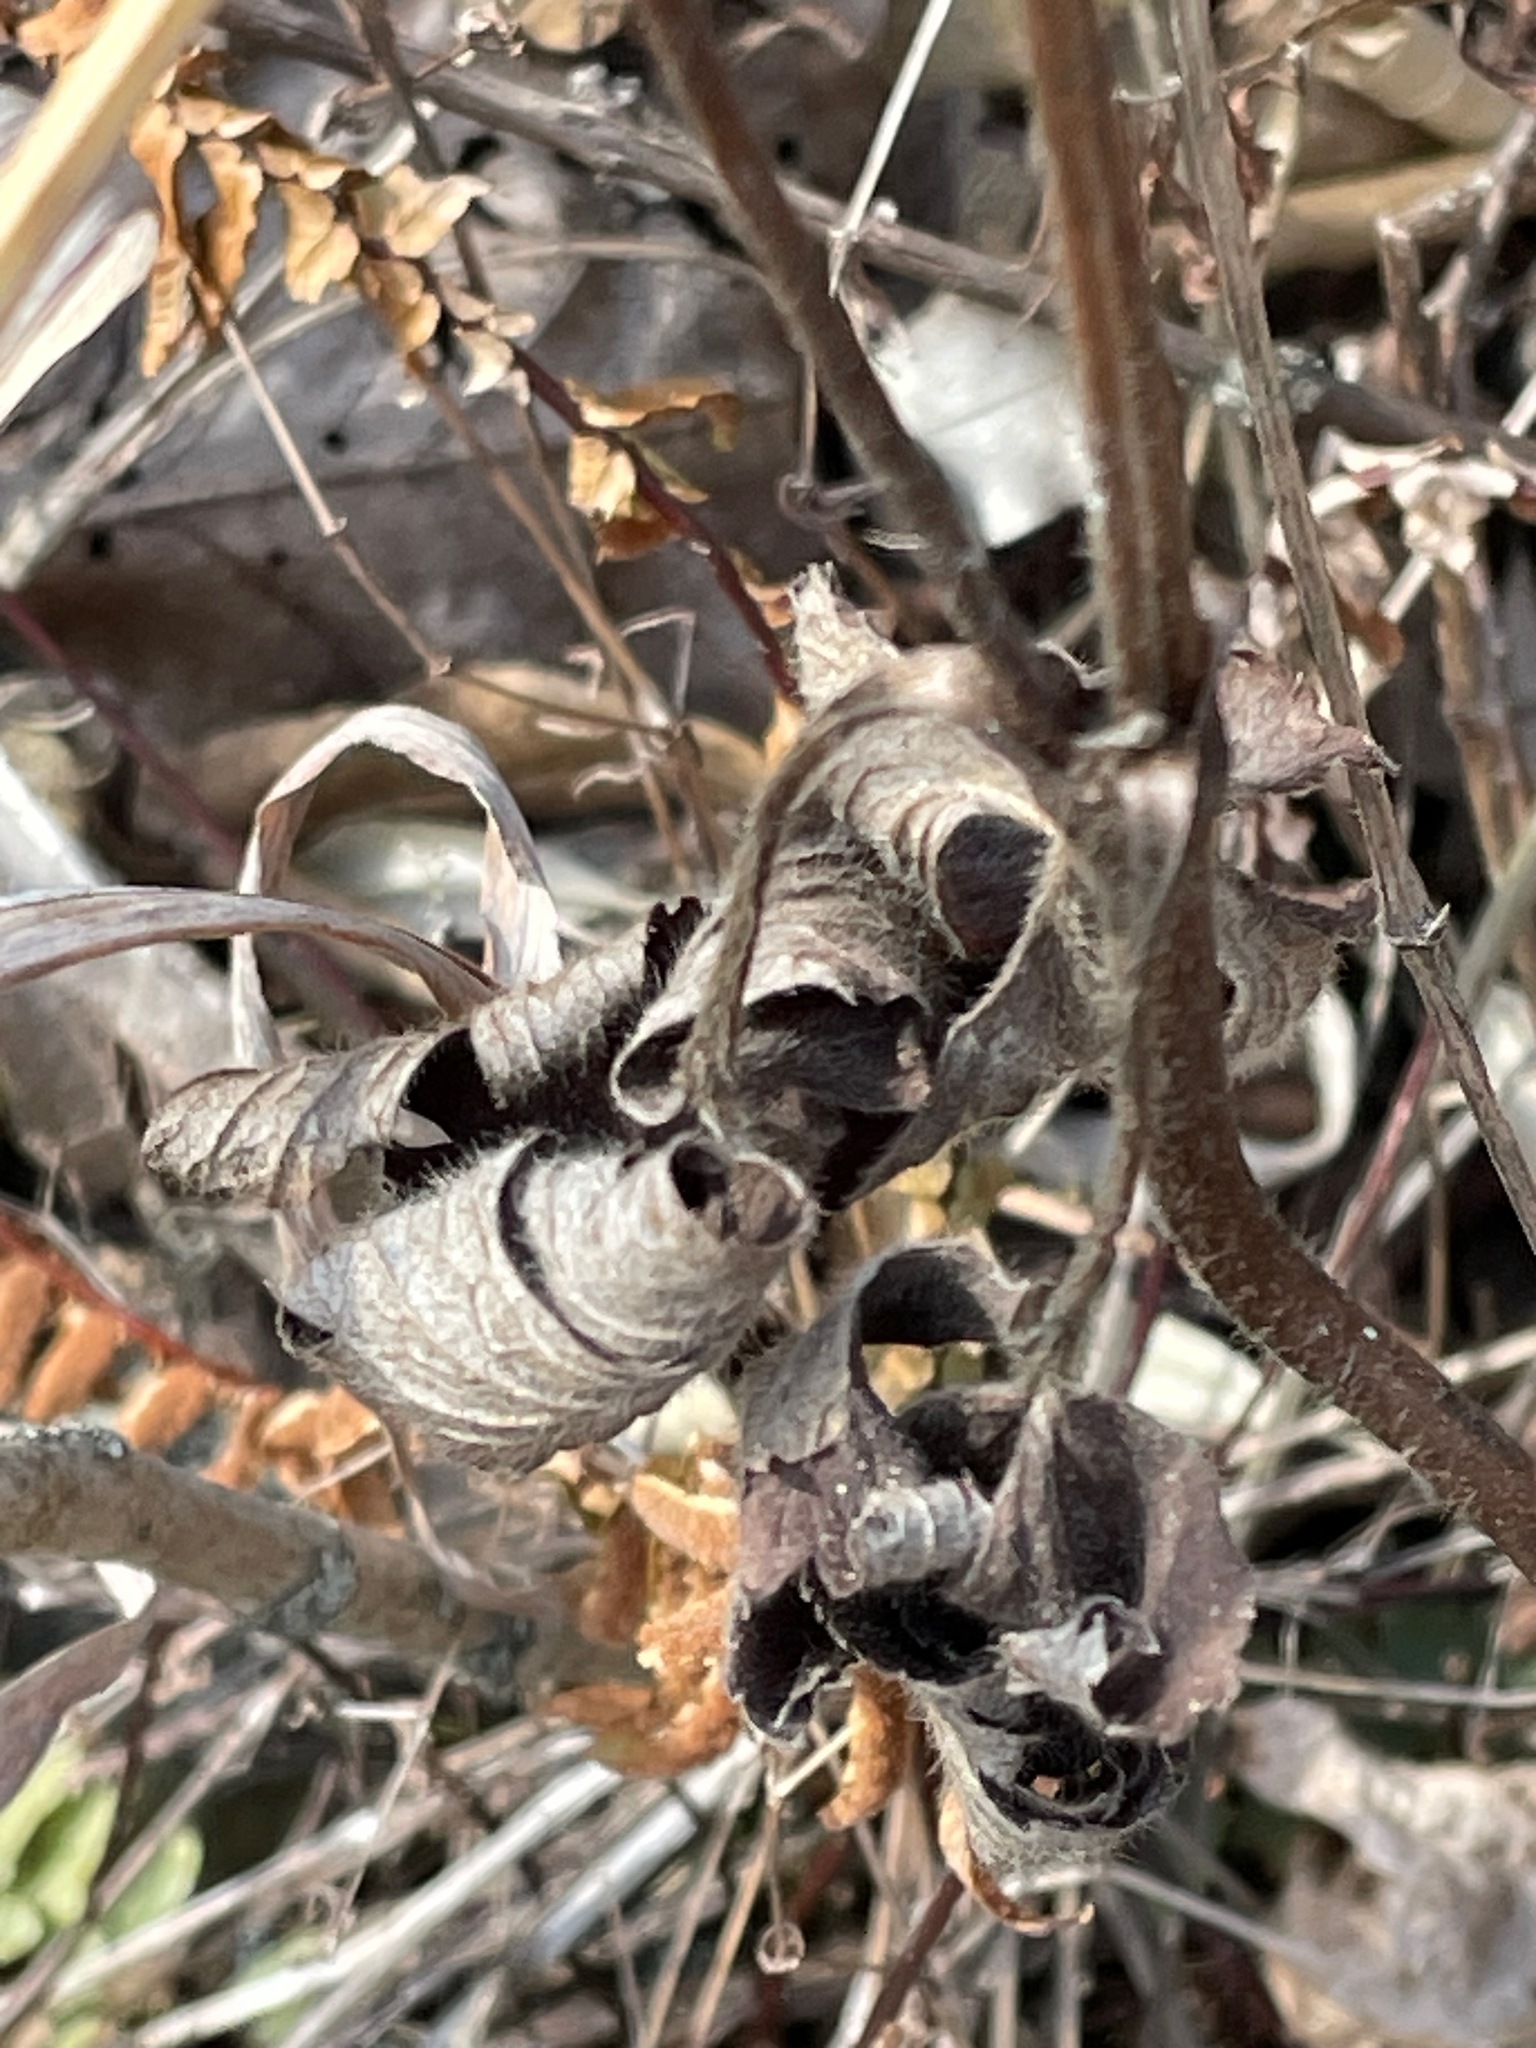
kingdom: Plantae
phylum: Tracheophyta
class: Magnoliopsida
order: Ranunculales
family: Ranunculaceae
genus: Anemone
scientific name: Anemone virginiana
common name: Tall anemone
